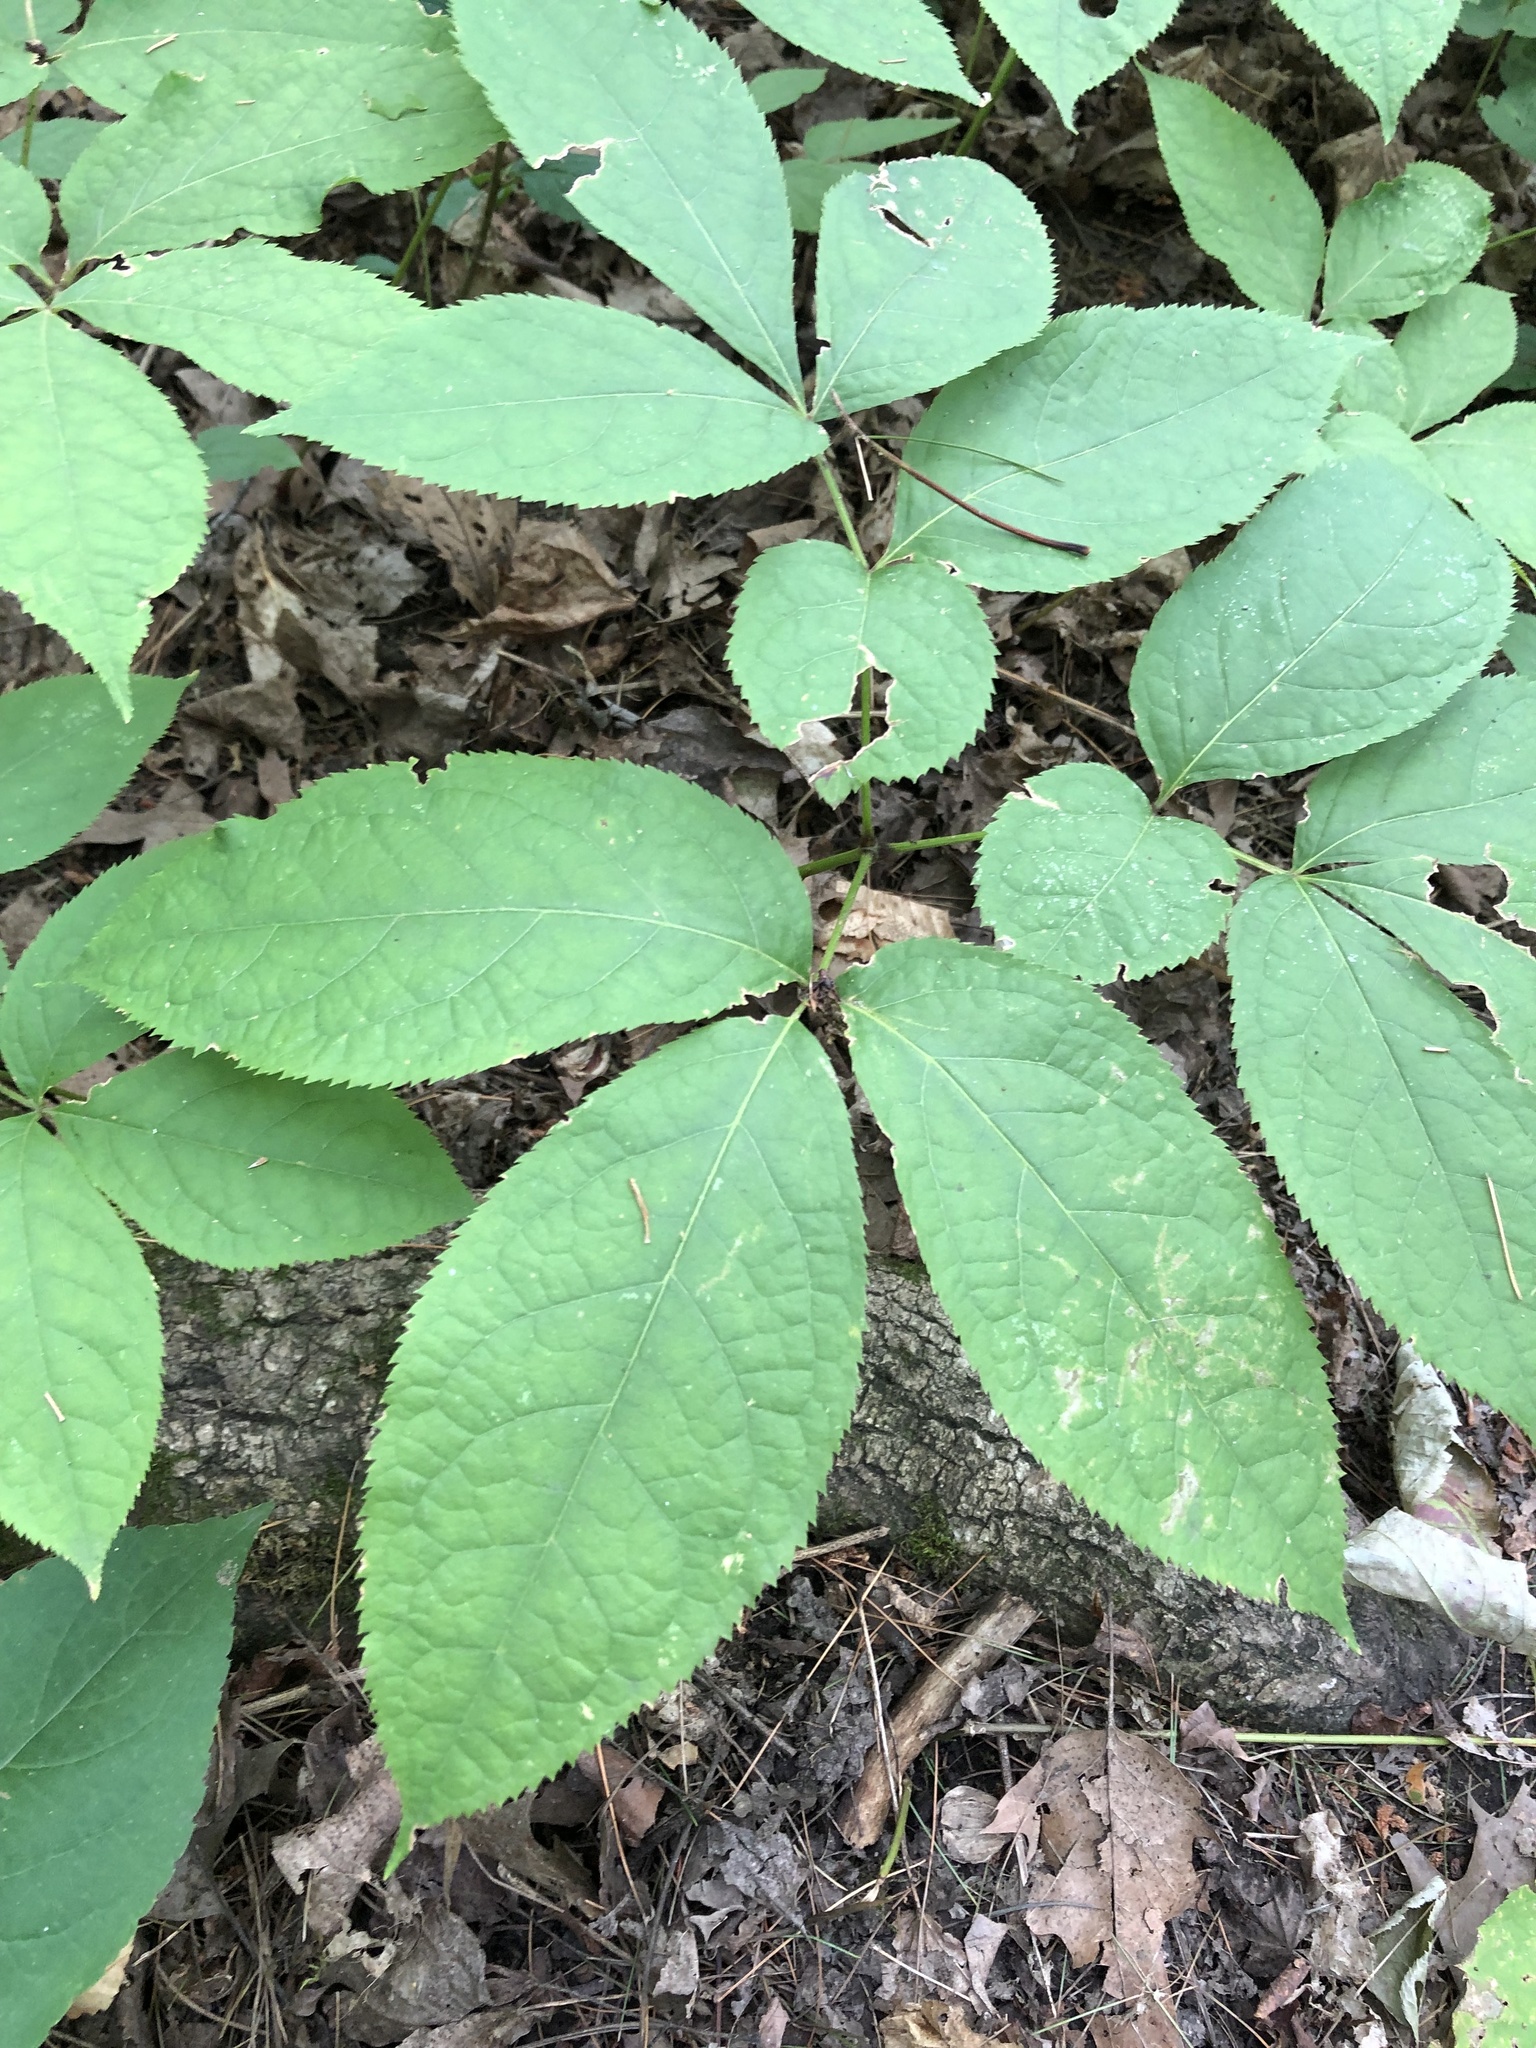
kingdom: Plantae
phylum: Tracheophyta
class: Magnoliopsida
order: Apiales
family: Araliaceae
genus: Aralia
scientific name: Aralia nudicaulis
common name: Wild sarsaparilla
